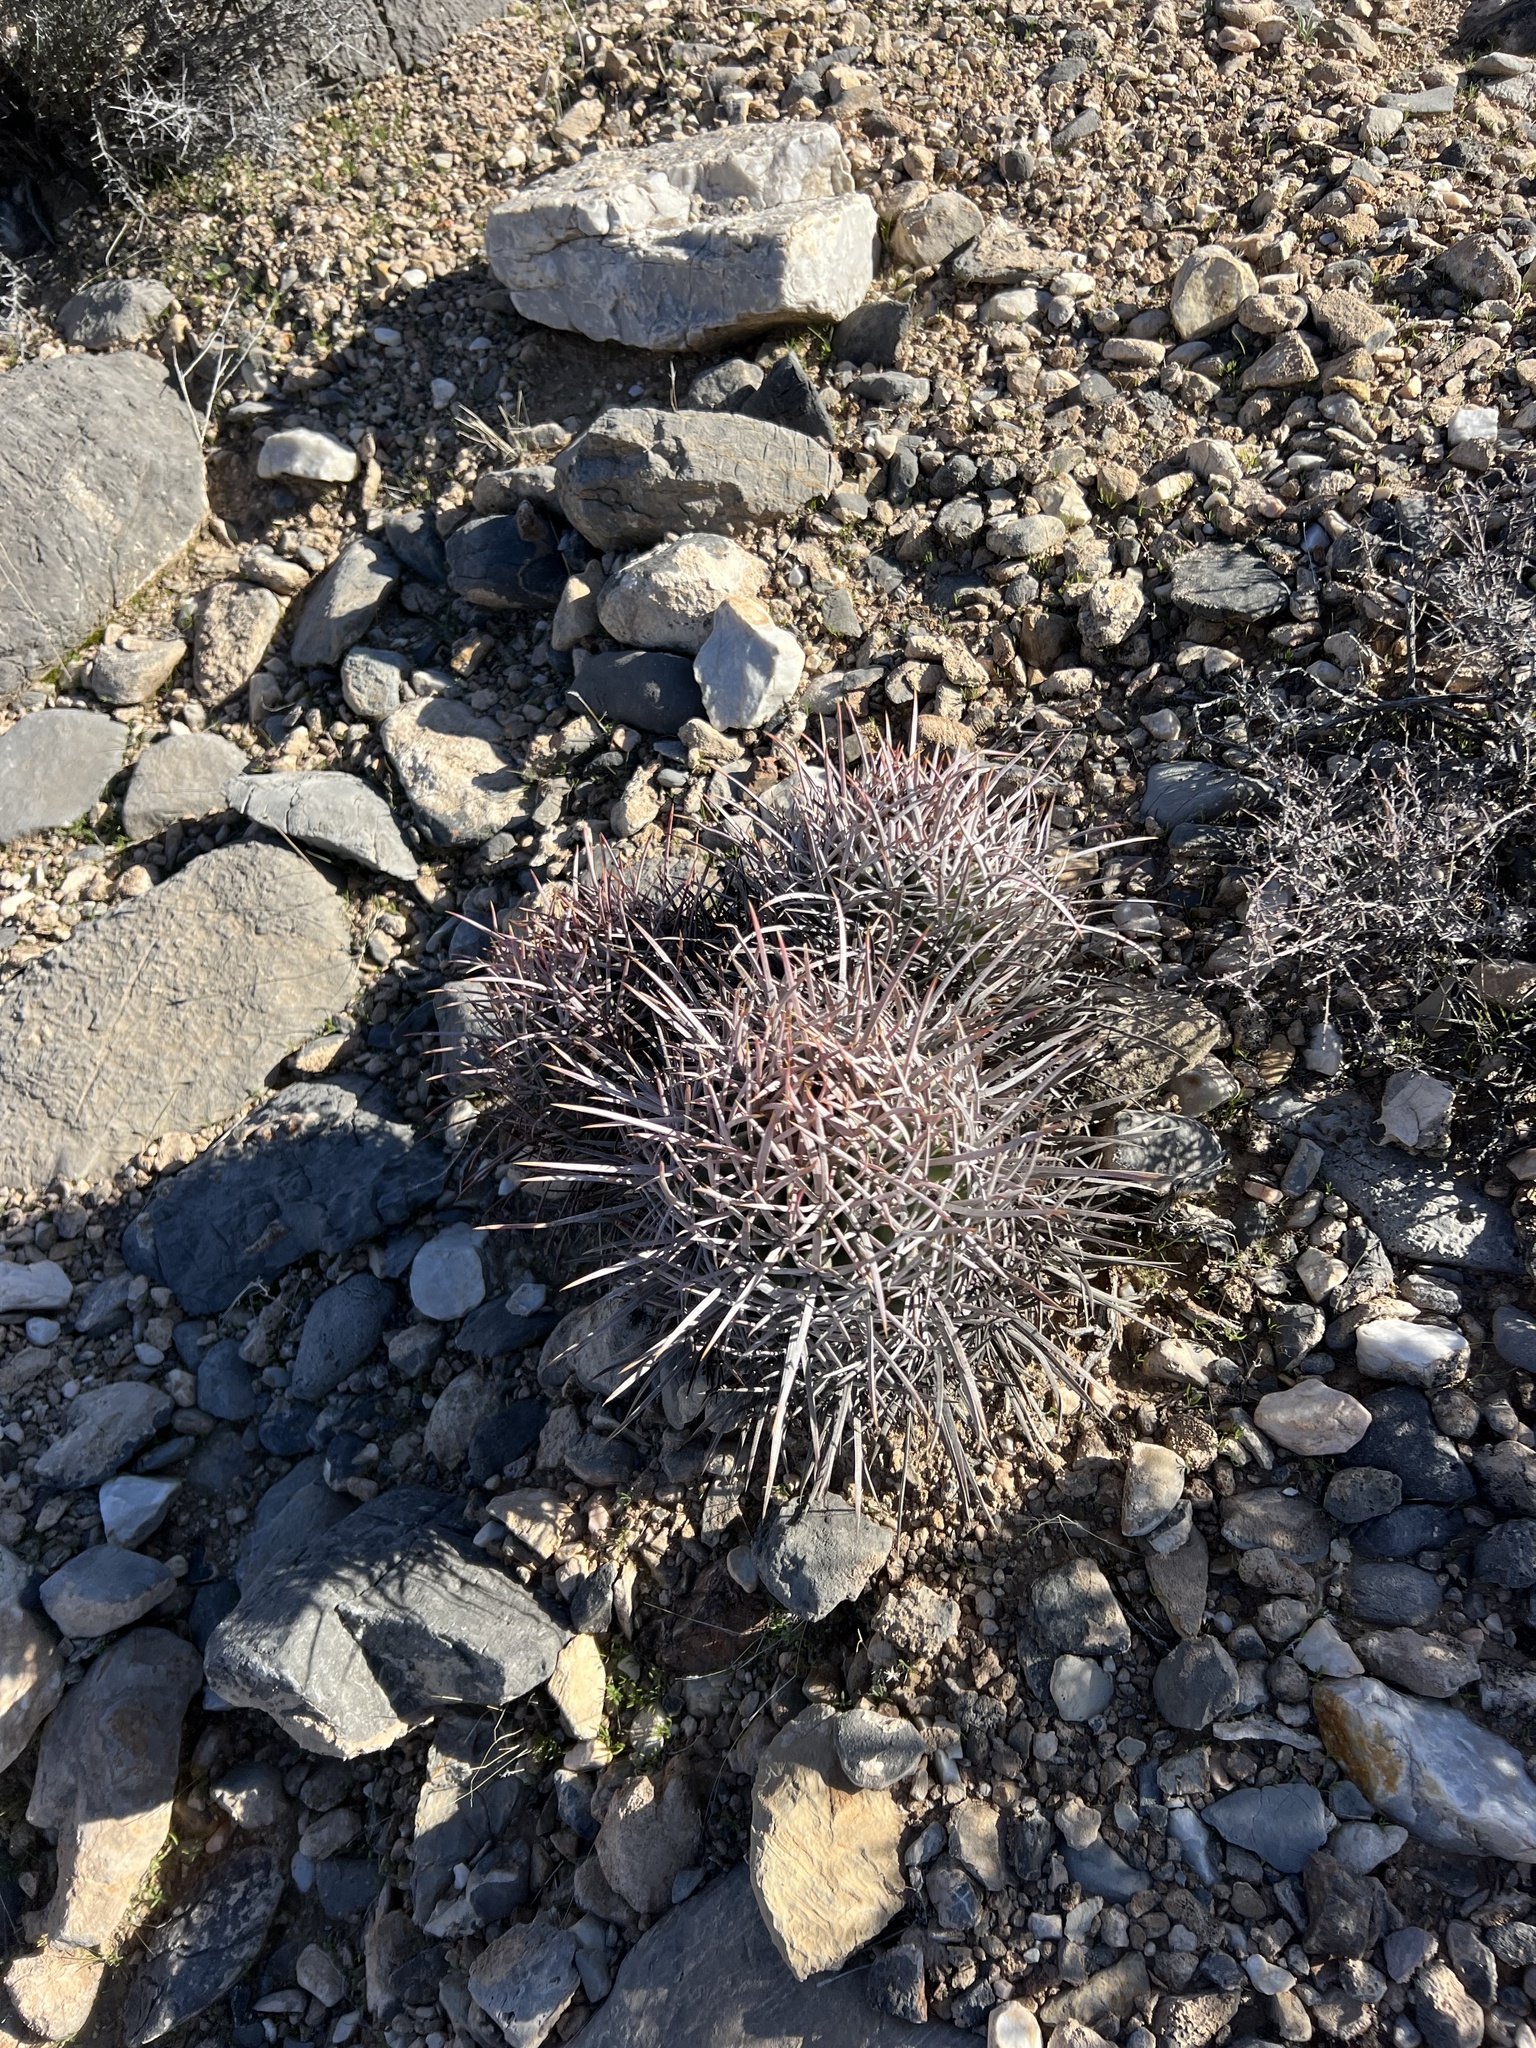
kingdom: Plantae
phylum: Tracheophyta
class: Magnoliopsida
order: Caryophyllales
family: Cactaceae
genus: Echinocactus
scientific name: Echinocactus polycephalus
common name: Cottontop cactus
